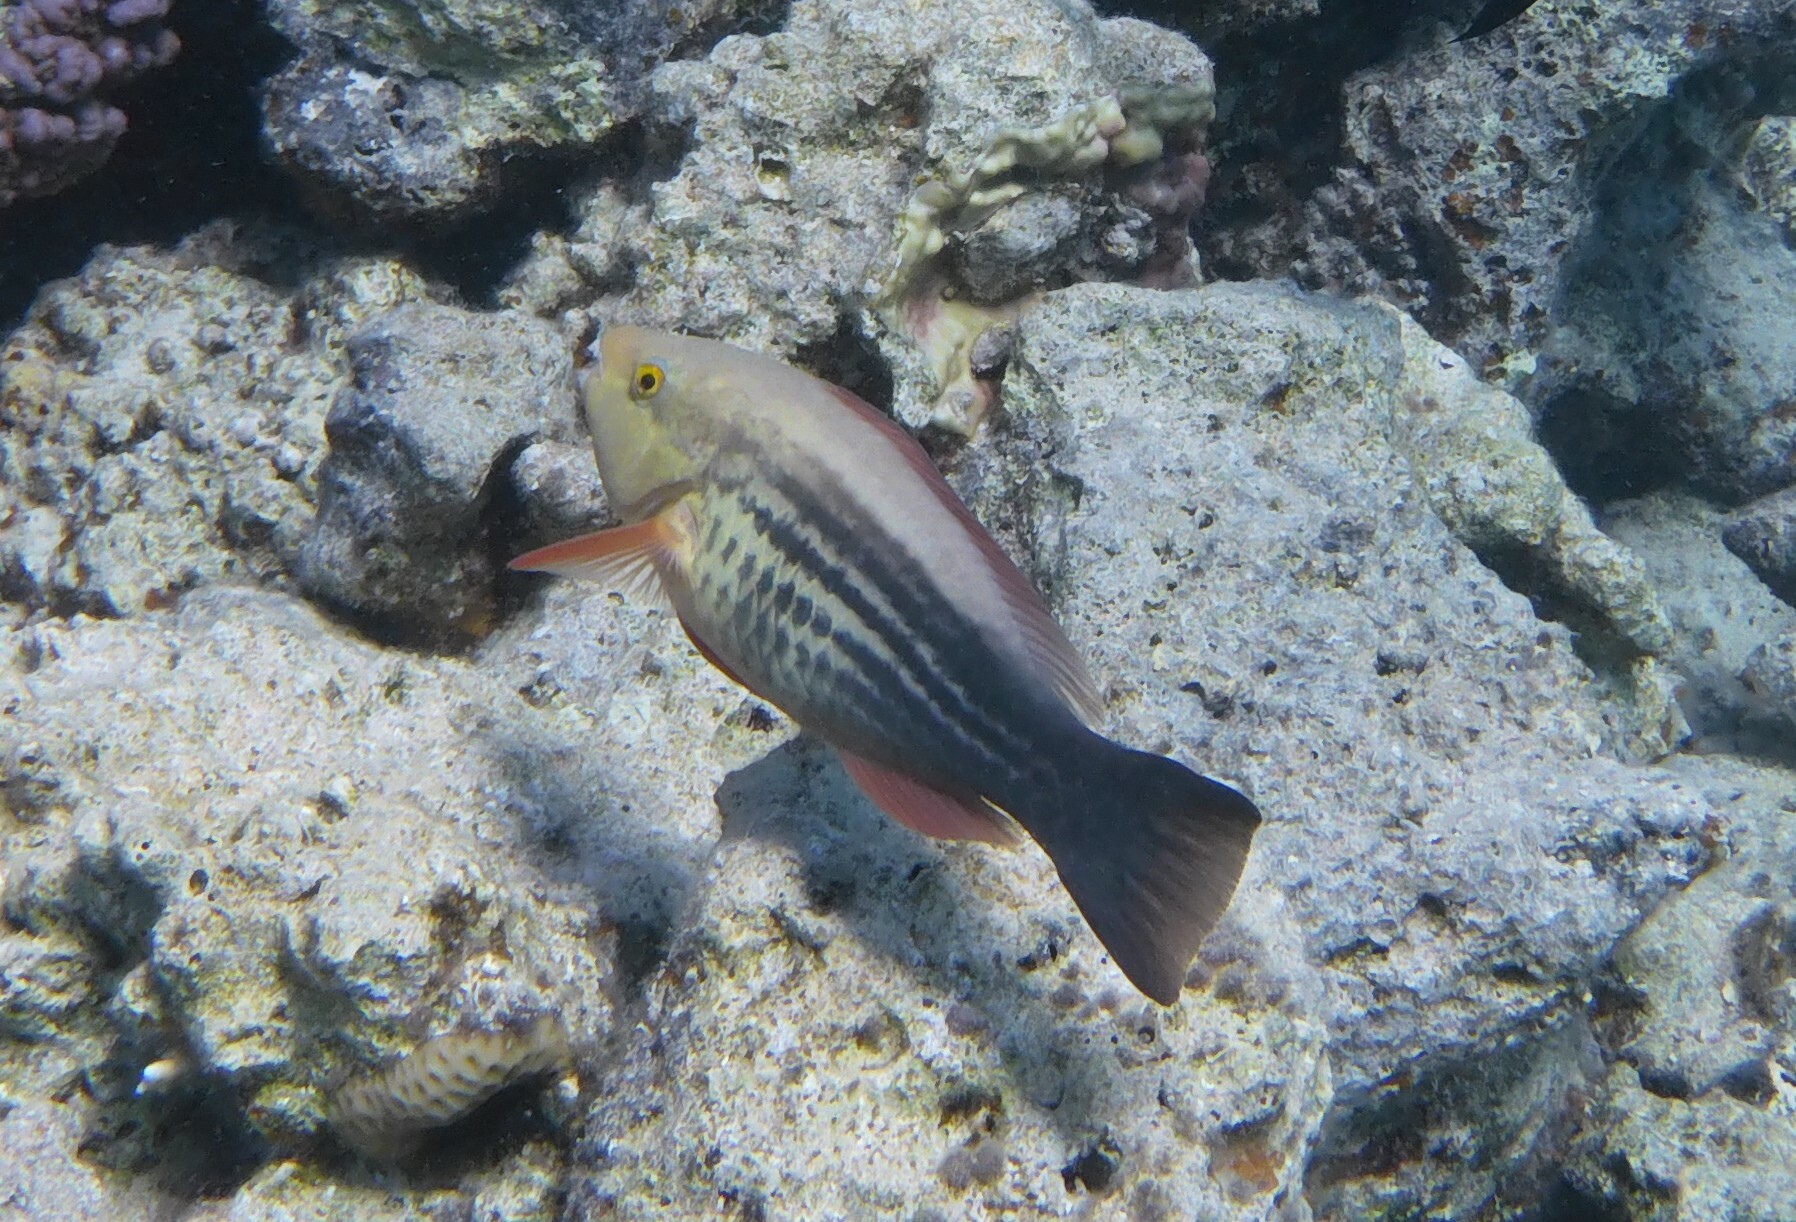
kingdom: Animalia
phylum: Chordata
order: Perciformes
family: Scaridae
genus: Scarus
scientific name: Scarus frenatus
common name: Bridled parrotfish
